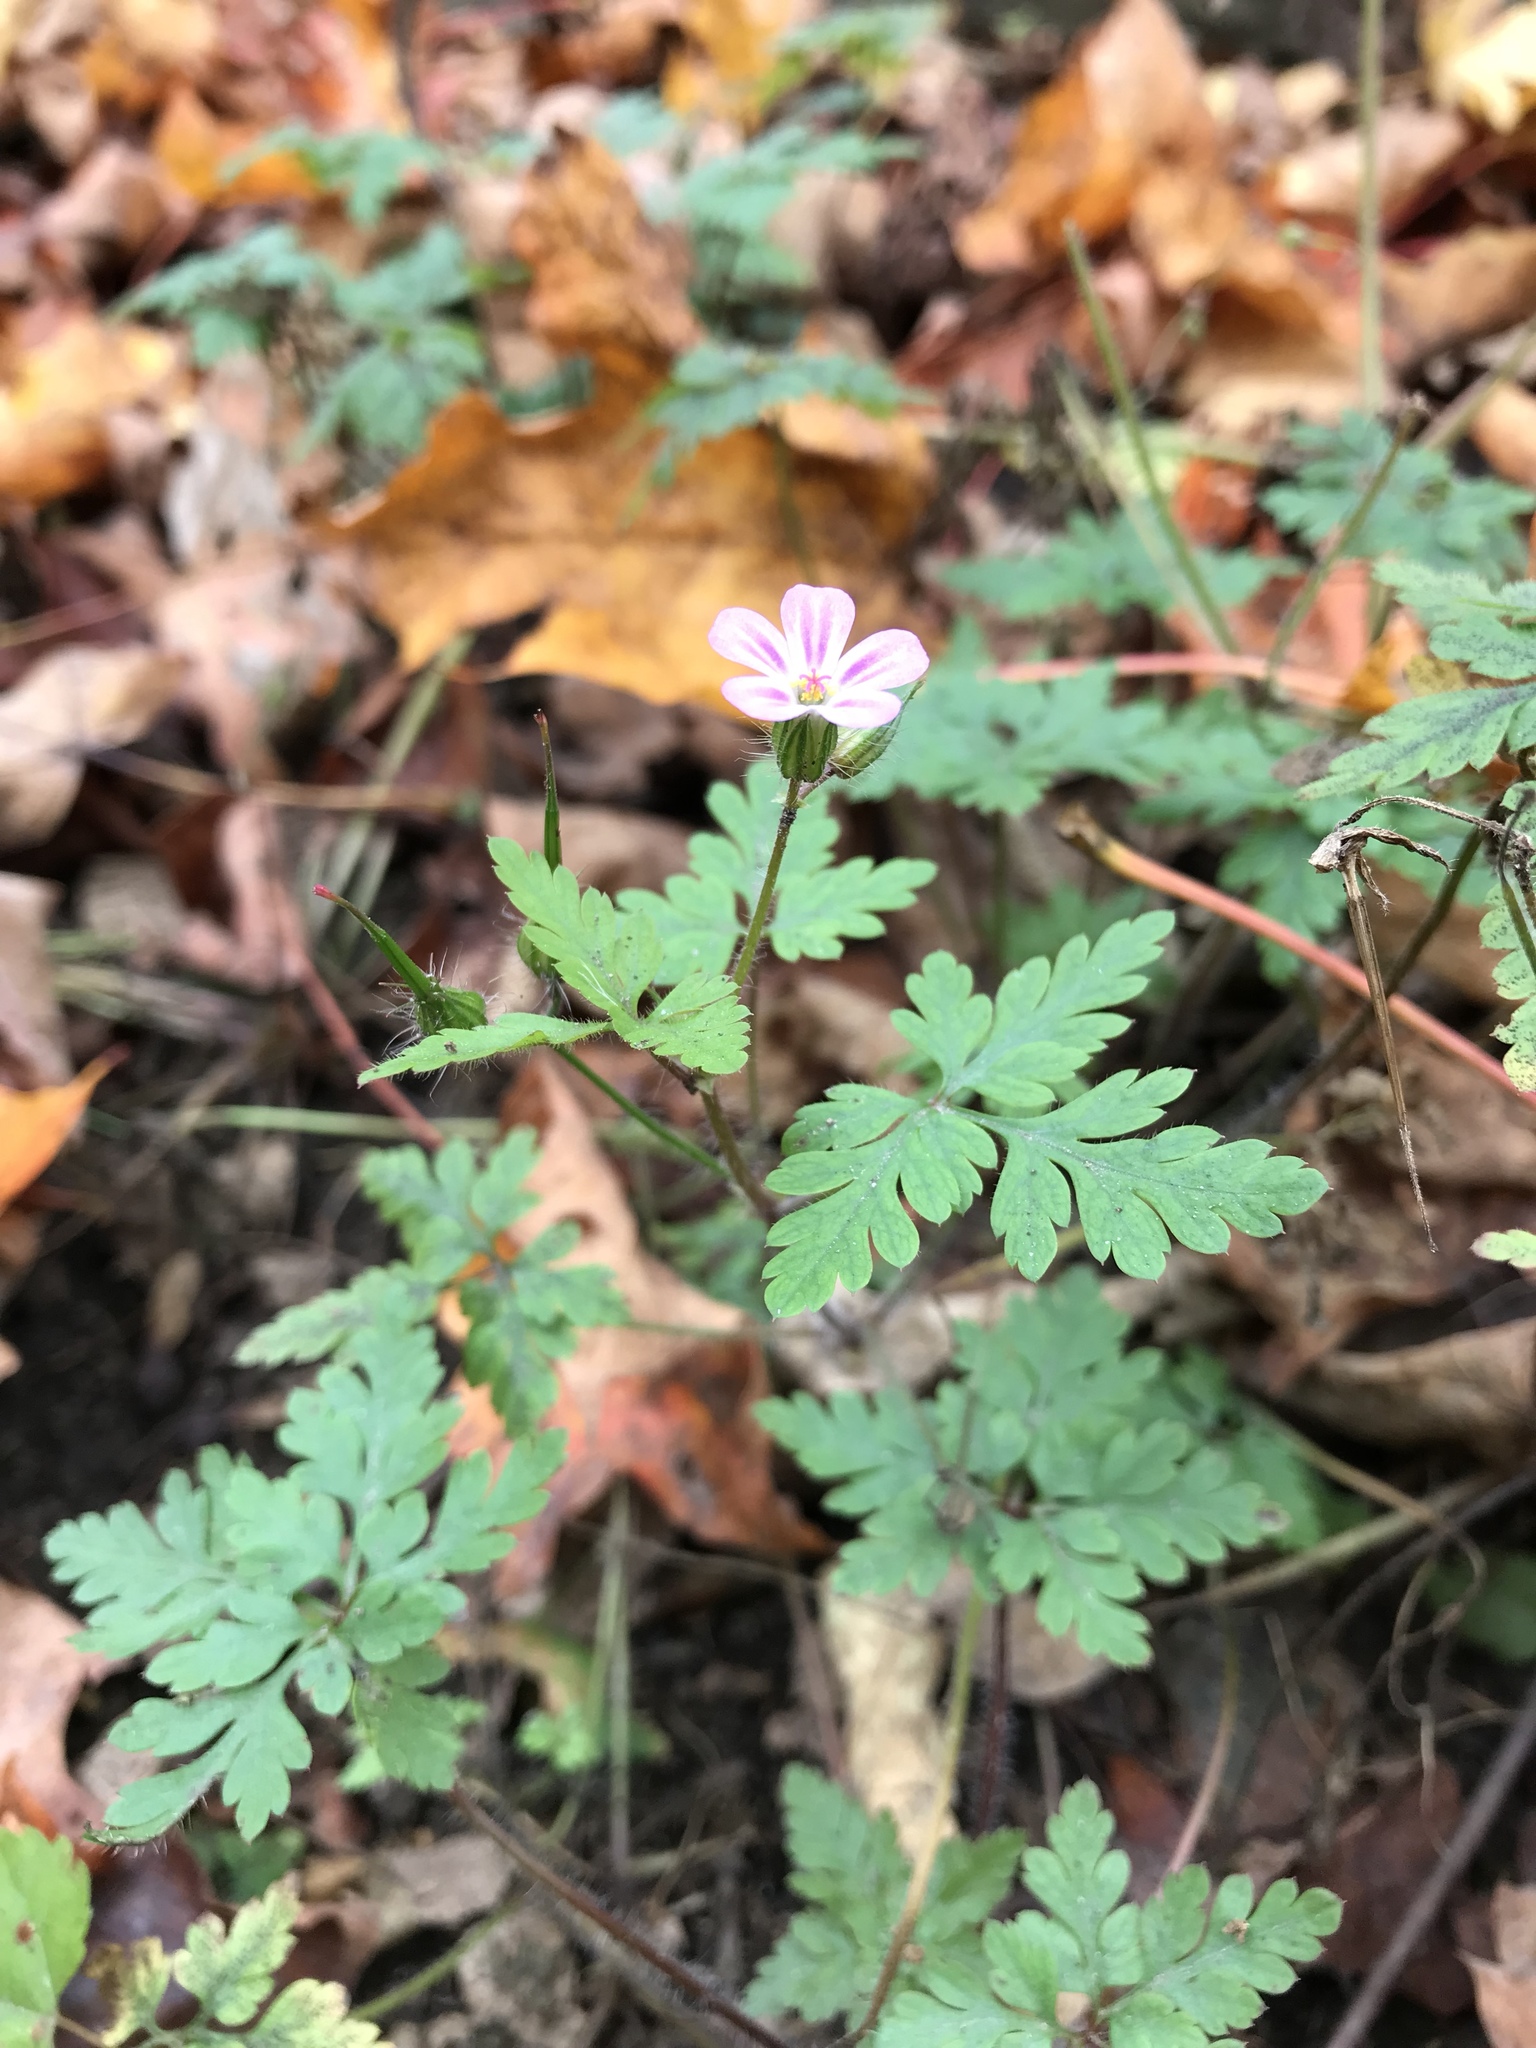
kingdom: Plantae
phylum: Tracheophyta
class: Magnoliopsida
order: Geraniales
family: Geraniaceae
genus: Geranium
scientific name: Geranium robertianum
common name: Herb-robert
